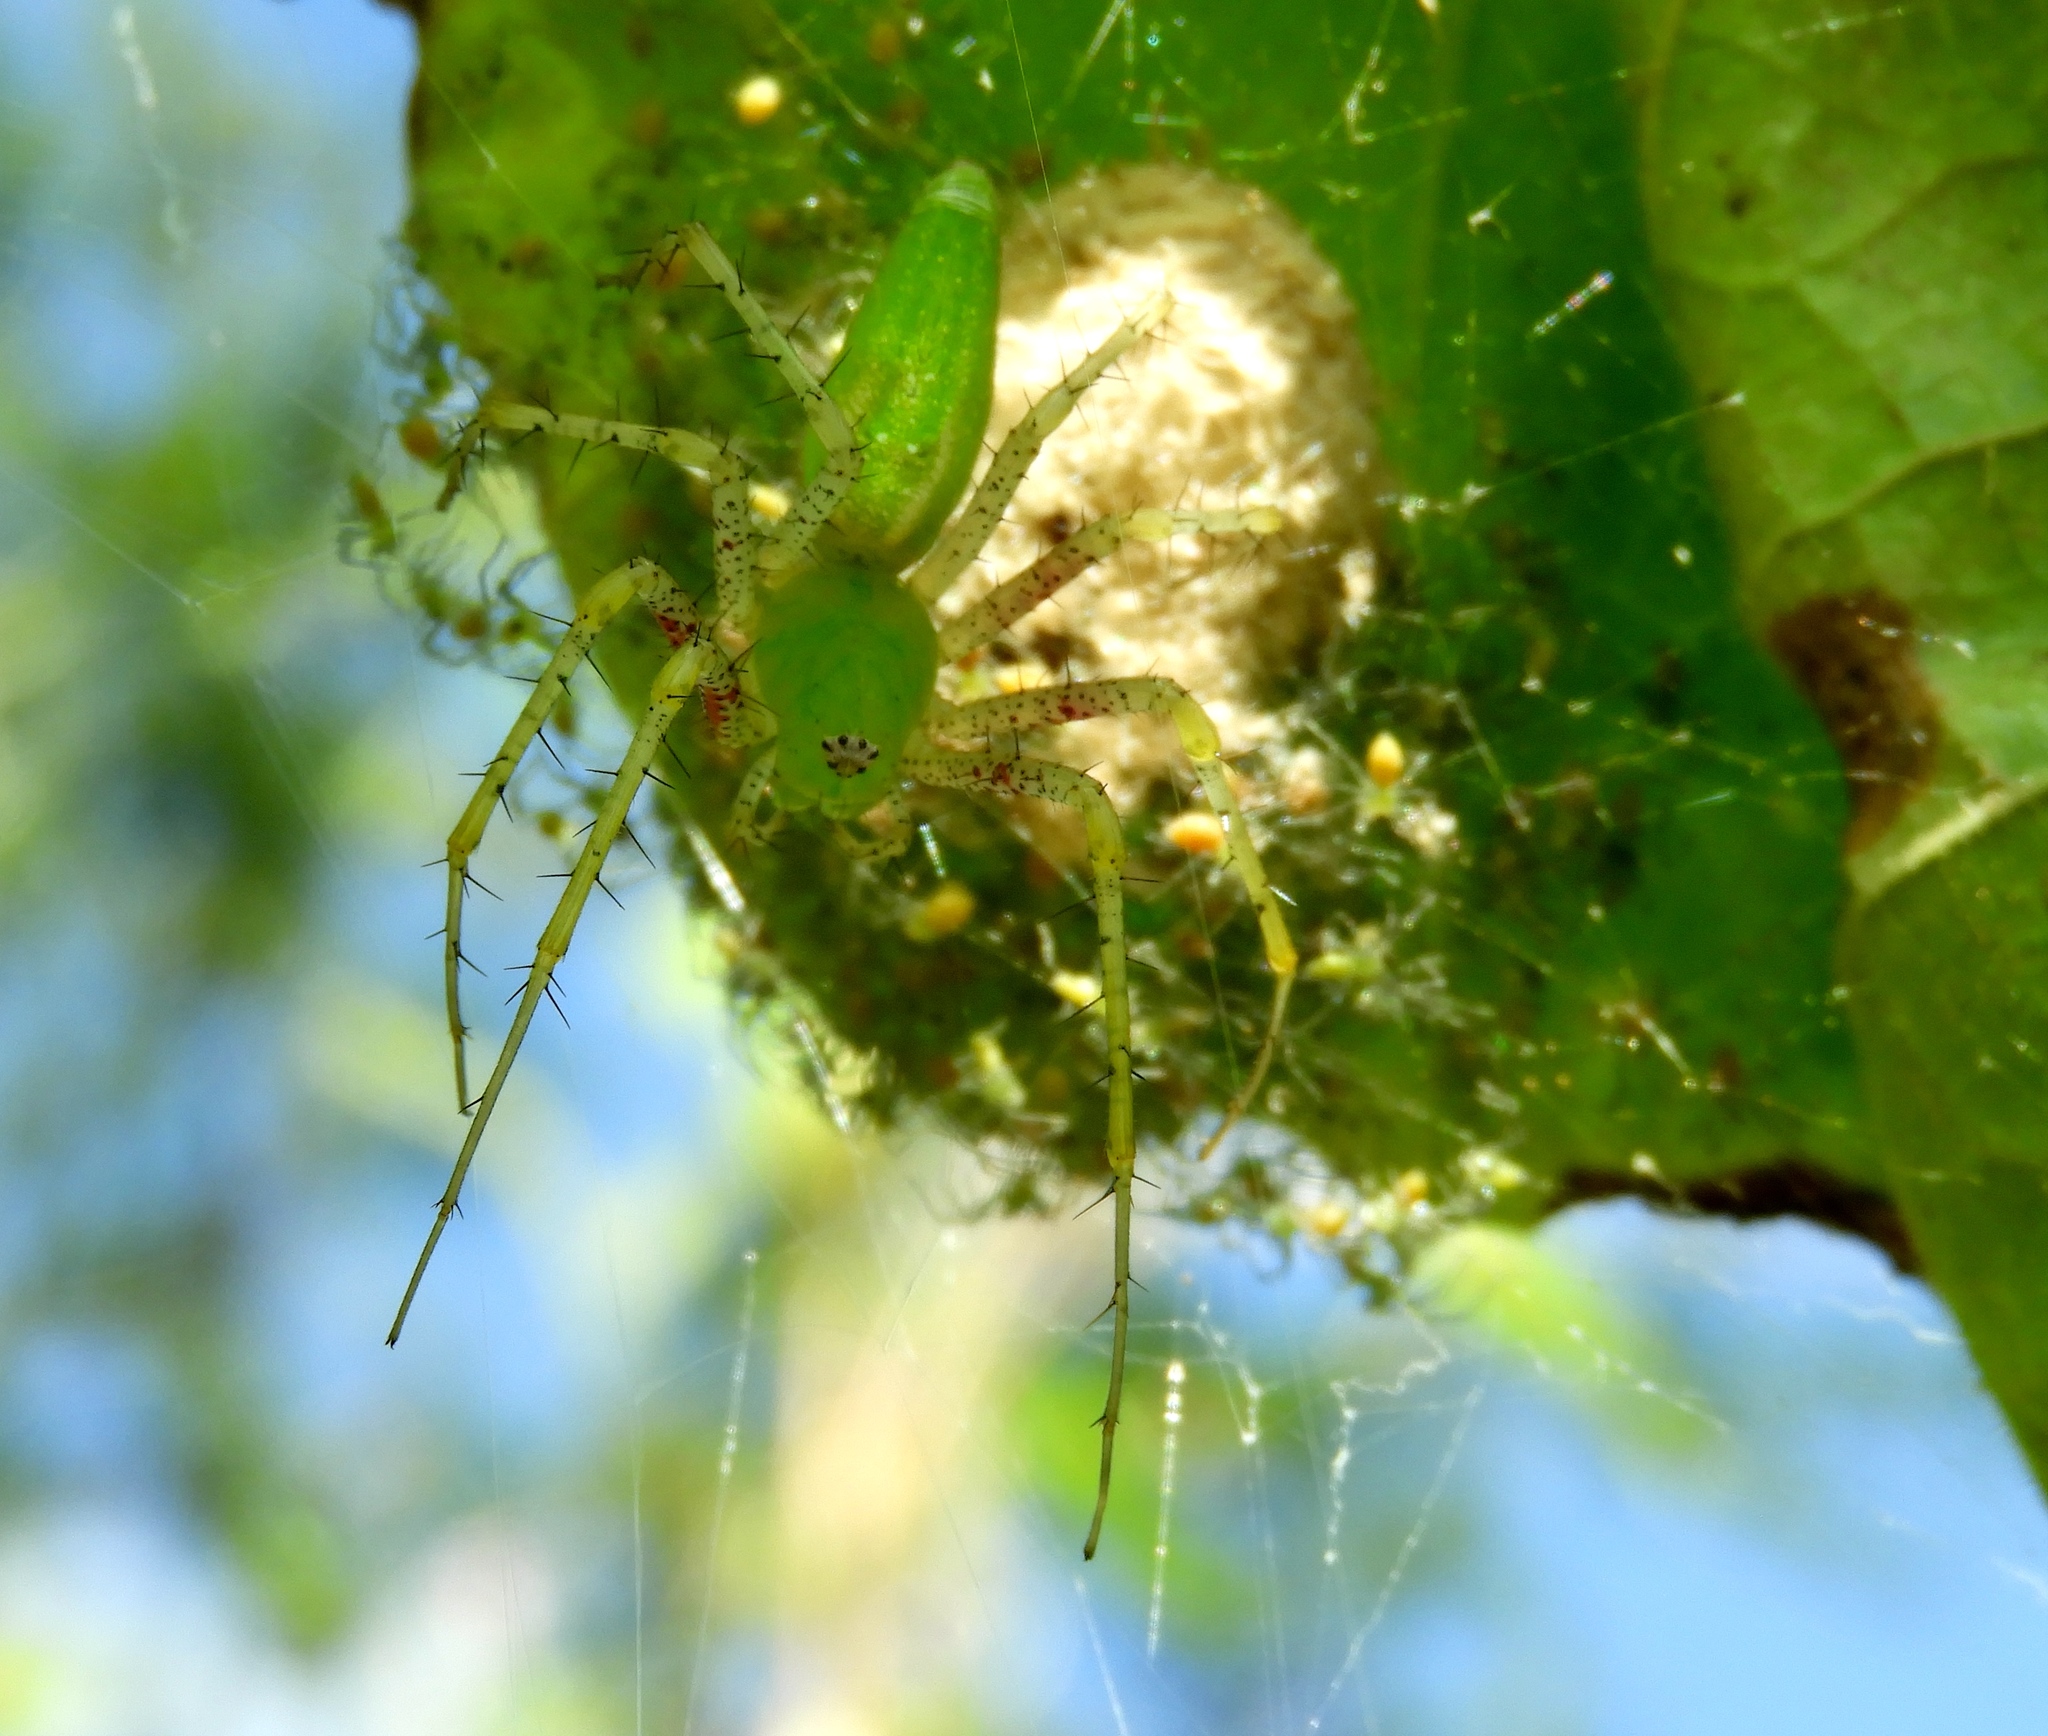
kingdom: Animalia
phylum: Arthropoda
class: Arachnida
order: Araneae
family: Oxyopidae
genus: Peucetia
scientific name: Peucetia
